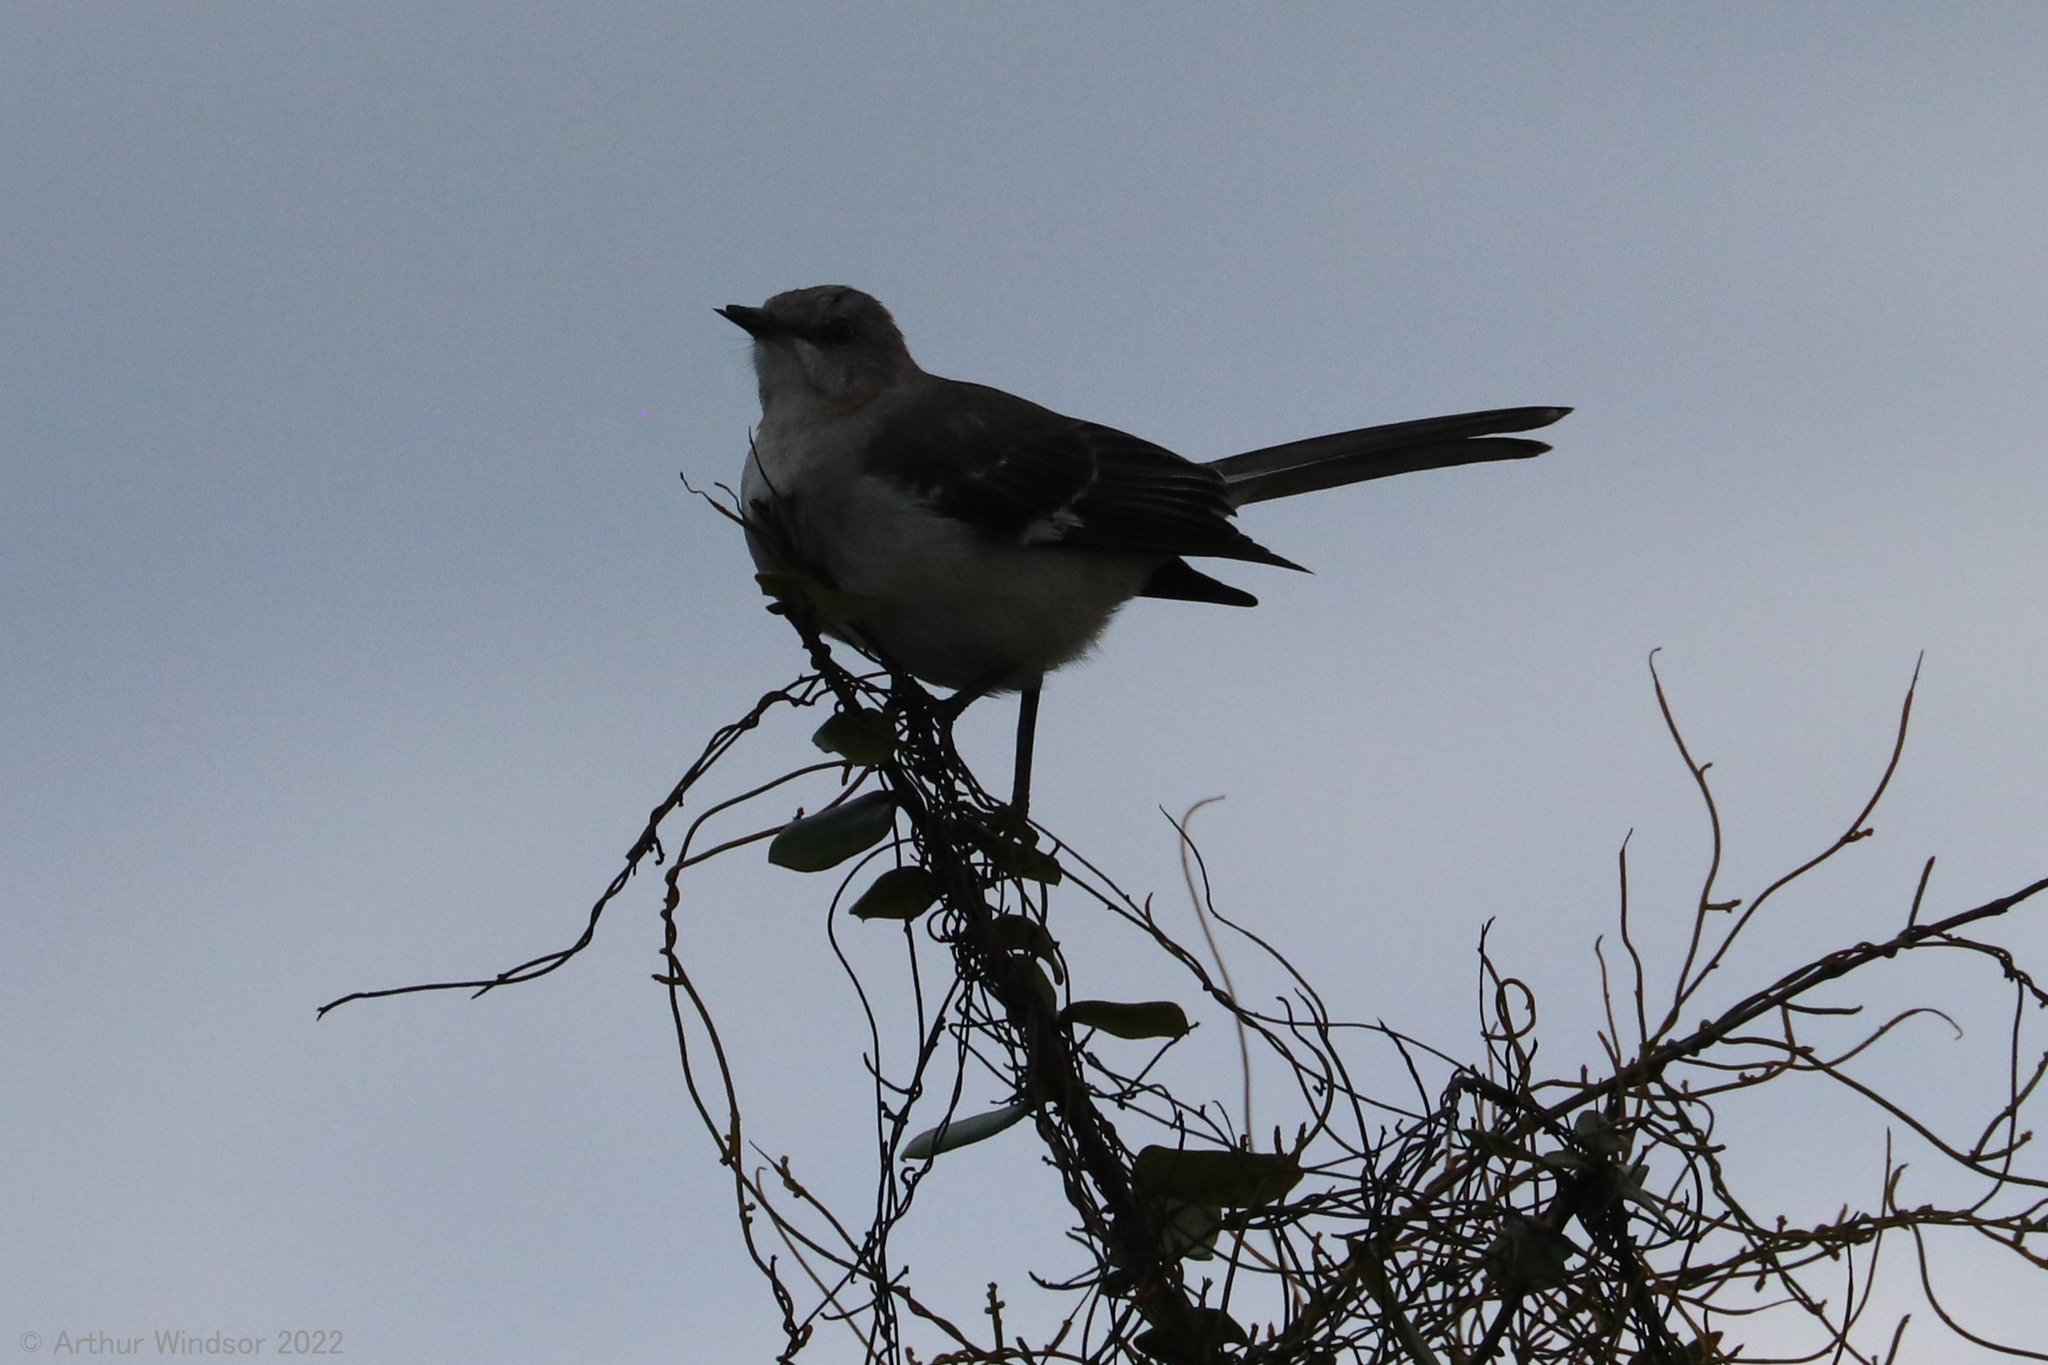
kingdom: Animalia
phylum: Chordata
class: Aves
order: Passeriformes
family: Mimidae
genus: Mimus
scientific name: Mimus polyglottos
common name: Northern mockingbird
